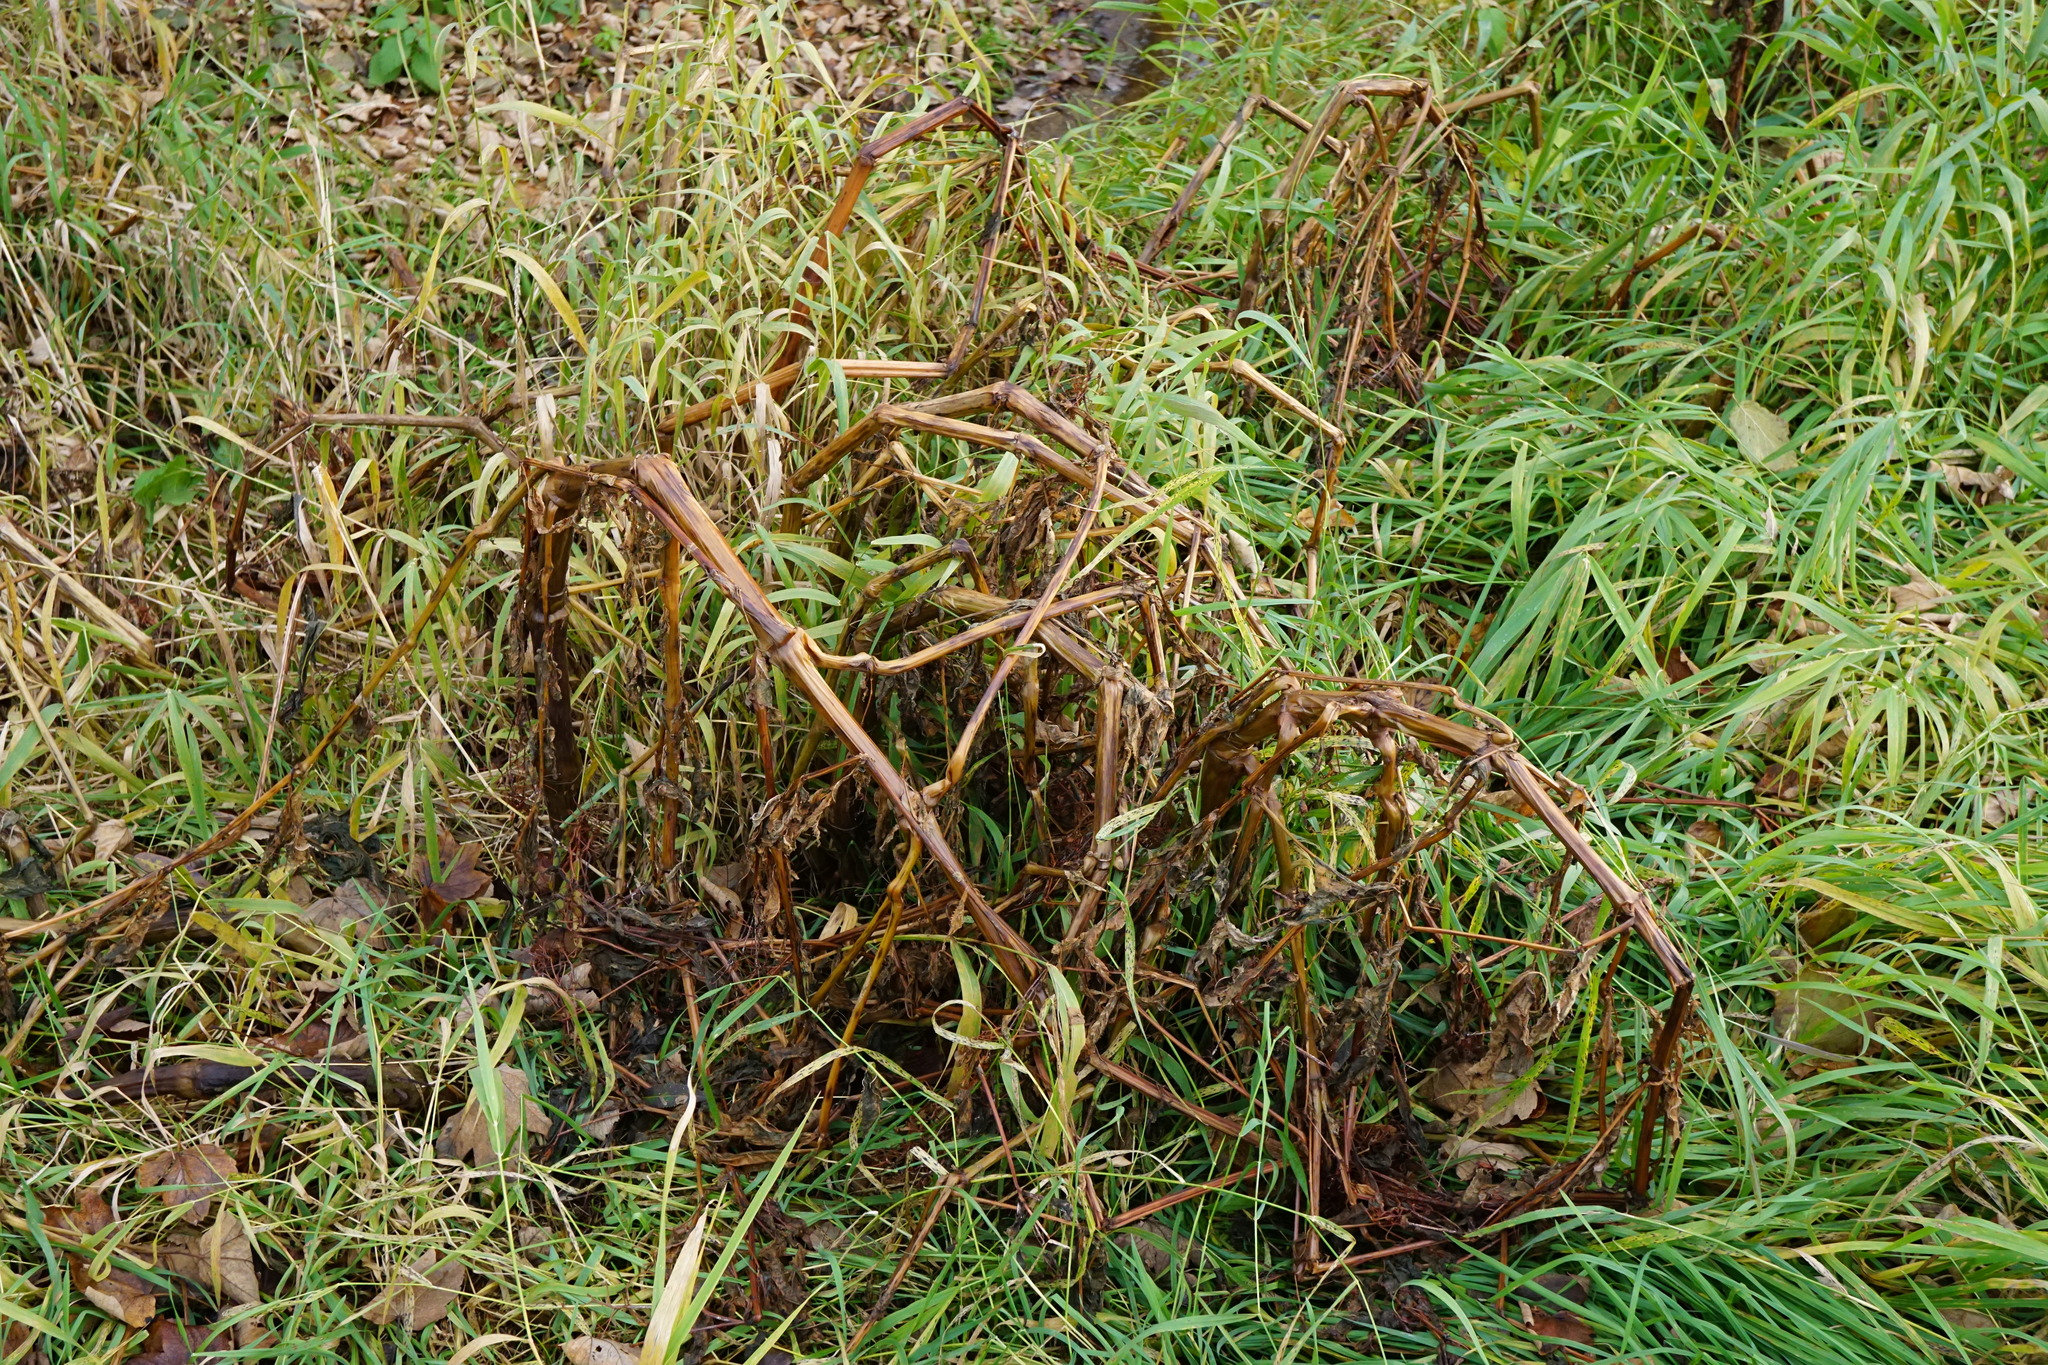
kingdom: Plantae
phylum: Tracheophyta
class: Magnoliopsida
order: Ericales
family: Balsaminaceae
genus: Impatiens
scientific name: Impatiens glandulifera
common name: Himalayan balsam
